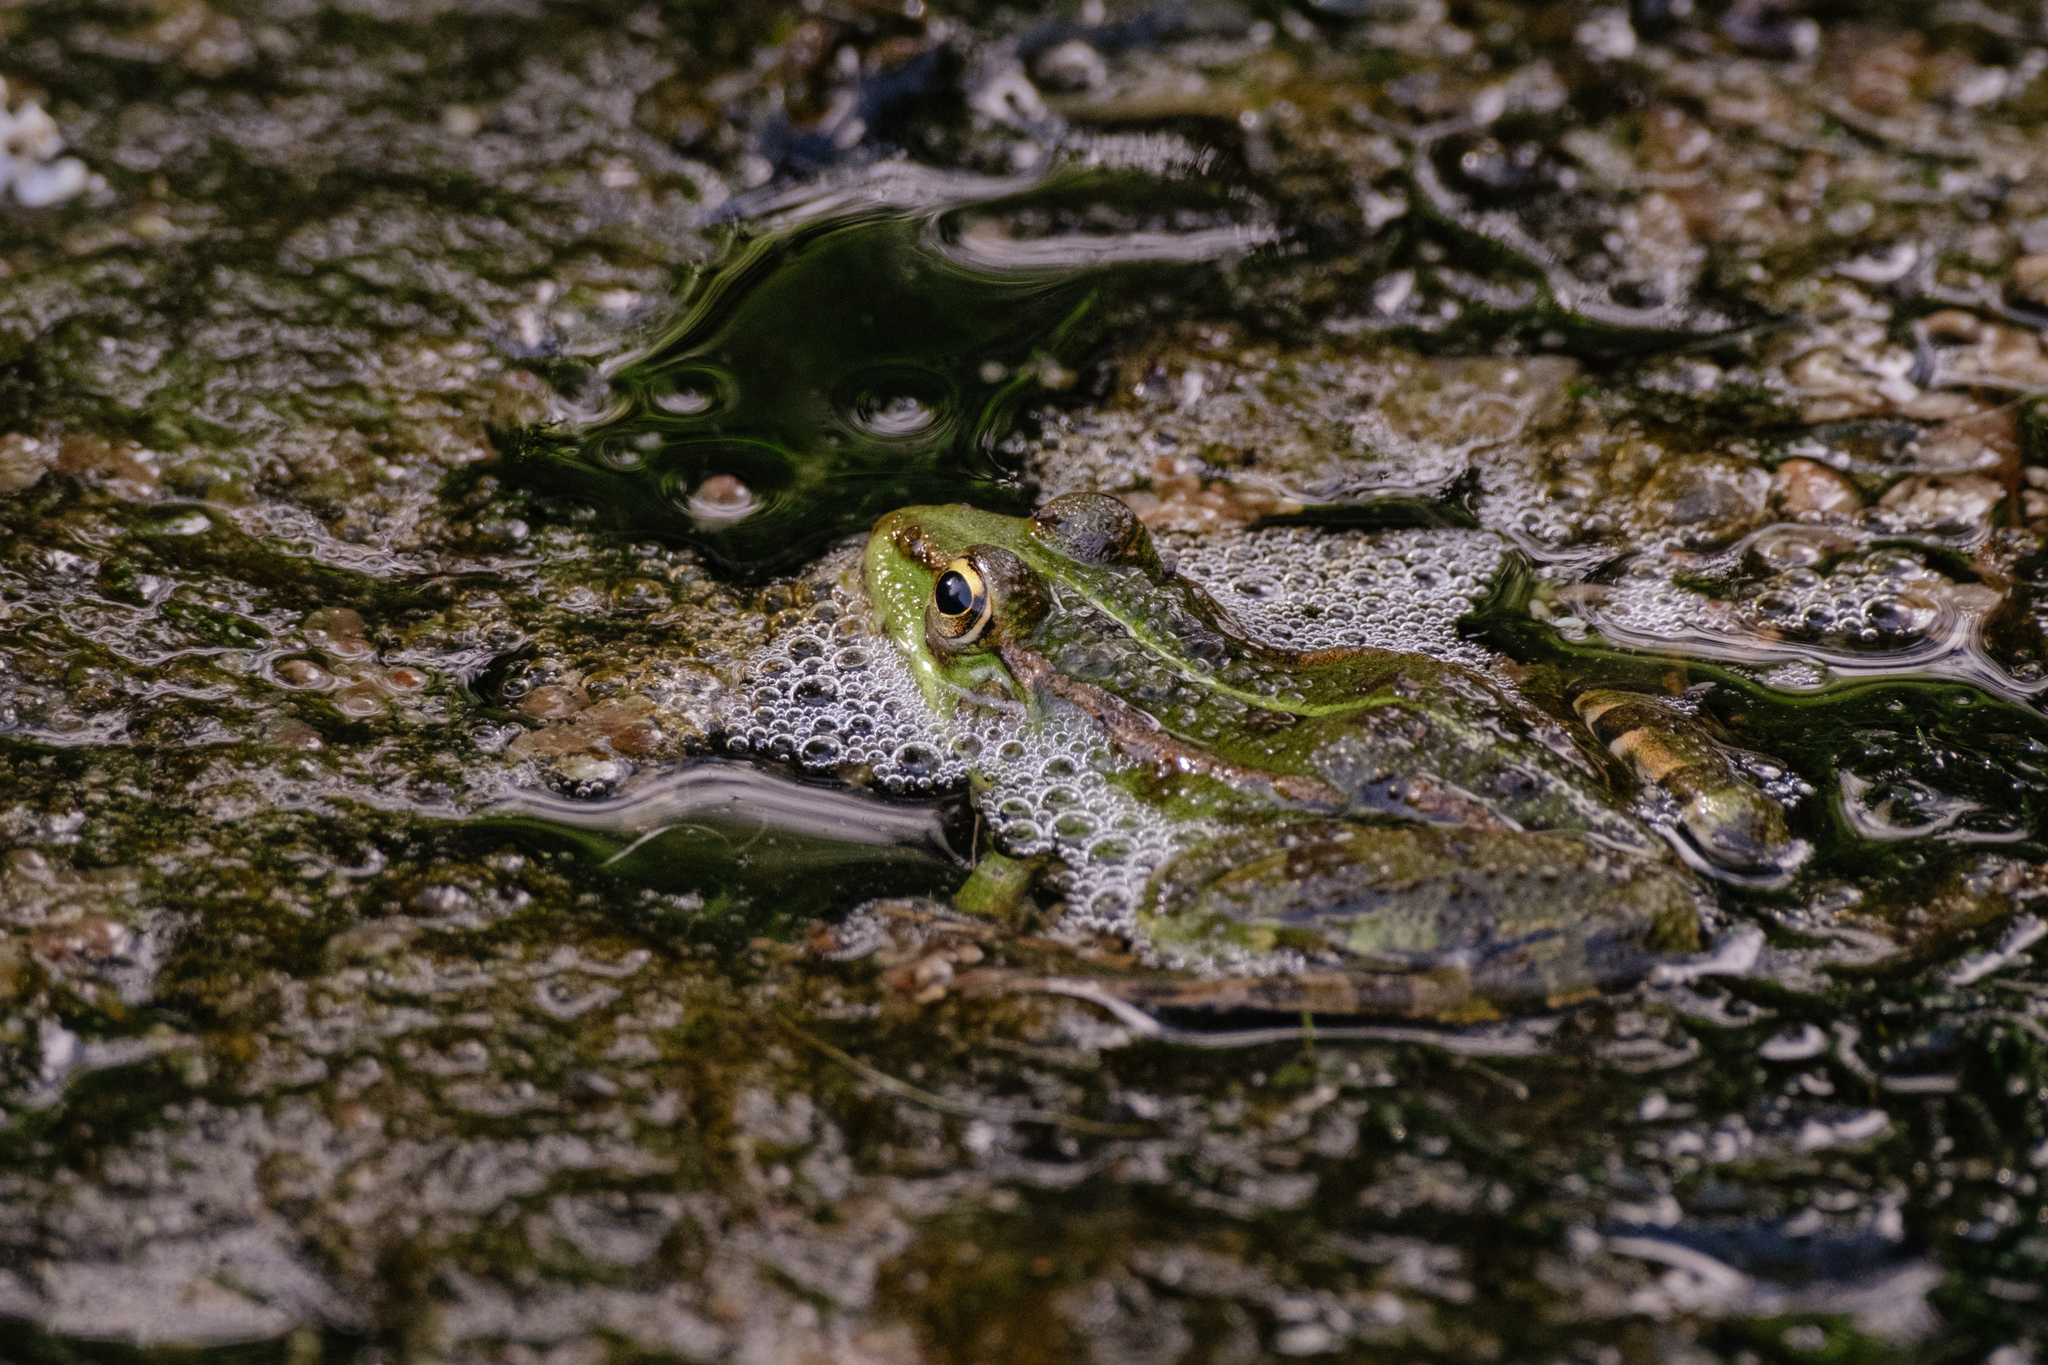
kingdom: Animalia
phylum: Chordata
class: Amphibia
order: Anura
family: Ranidae
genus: Pelophylax
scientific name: Pelophylax perezi
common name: Perez's frog
